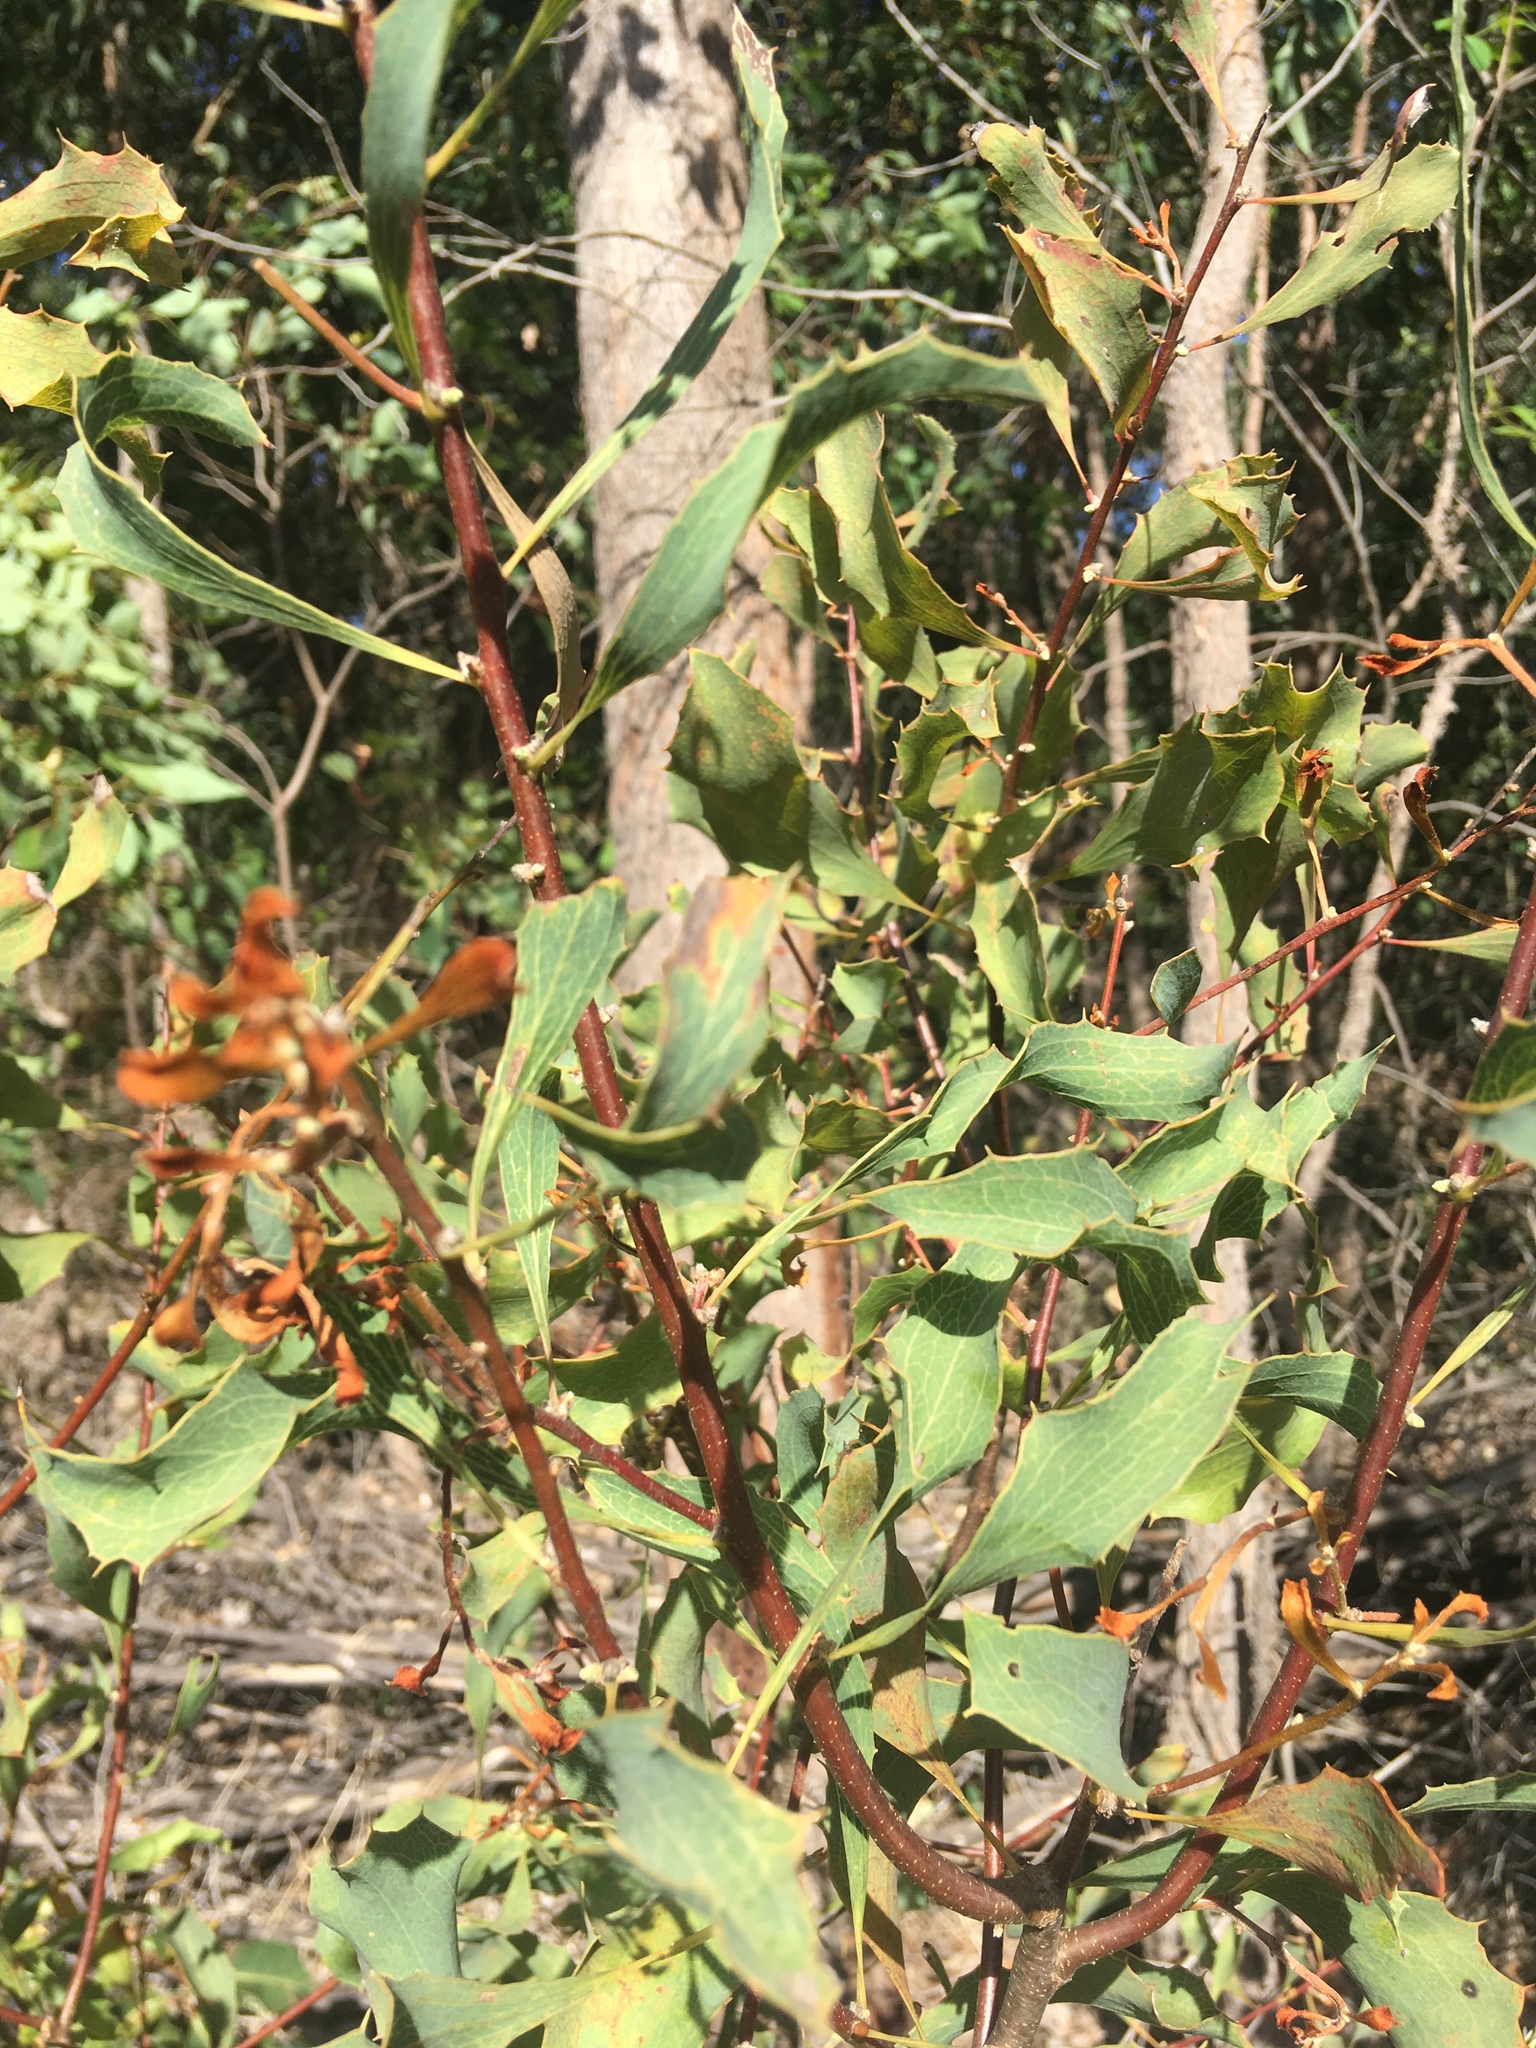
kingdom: Plantae
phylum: Tracheophyta
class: Magnoliopsida
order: Proteales
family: Proteaceae
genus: Hakea
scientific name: Hakea undulata
